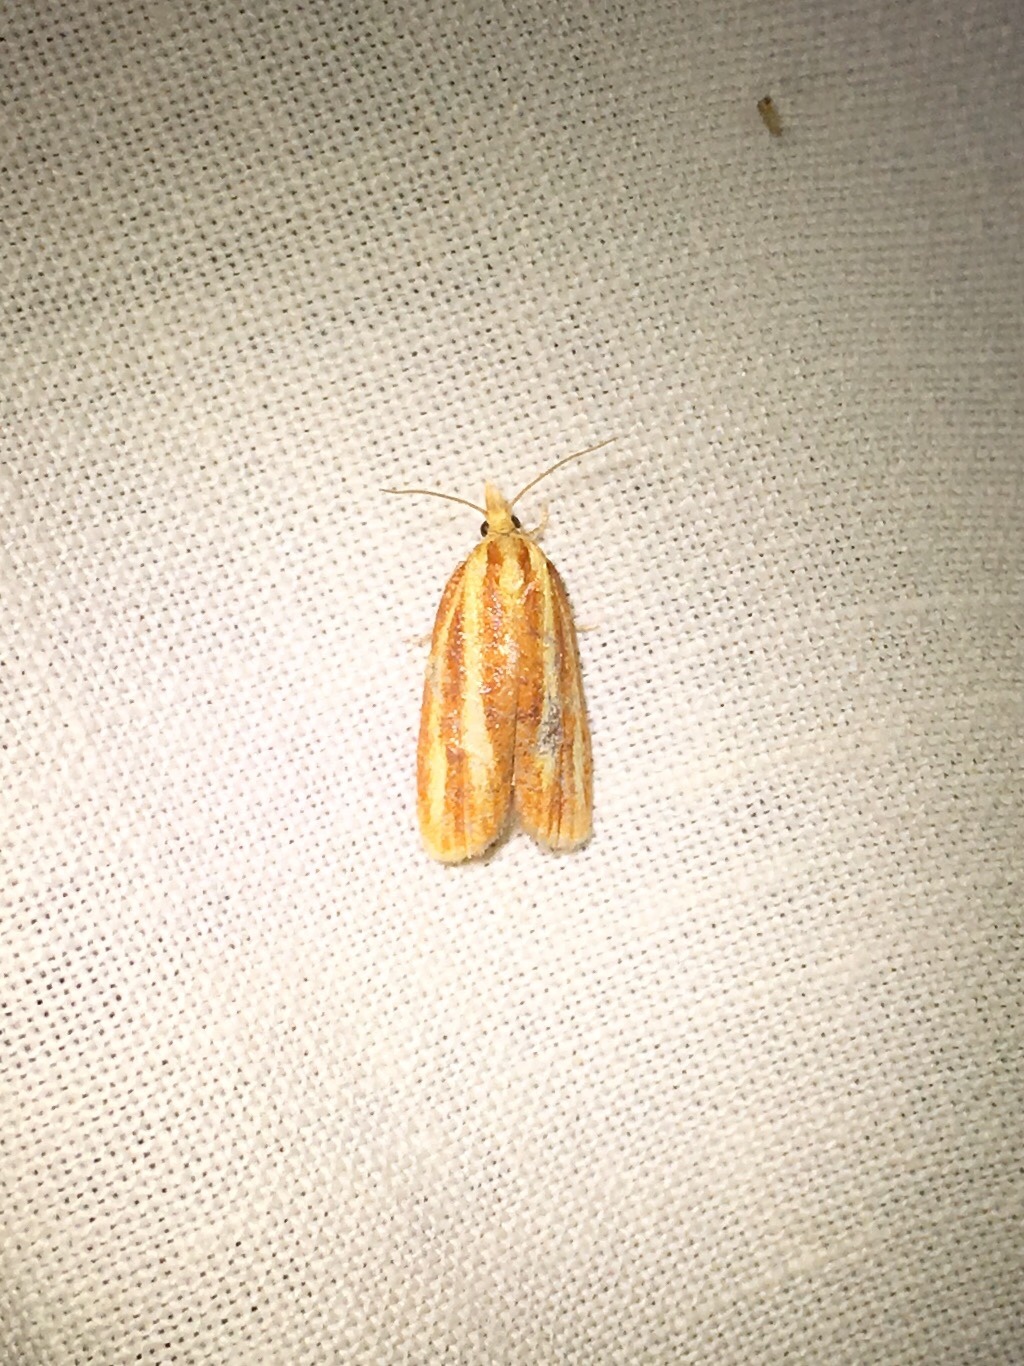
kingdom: Animalia
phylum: Arthropoda
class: Insecta
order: Lepidoptera
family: Tortricidae
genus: Sparganothis
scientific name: Sparganothis tristriata
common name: Three-streaked sparganothis moth
